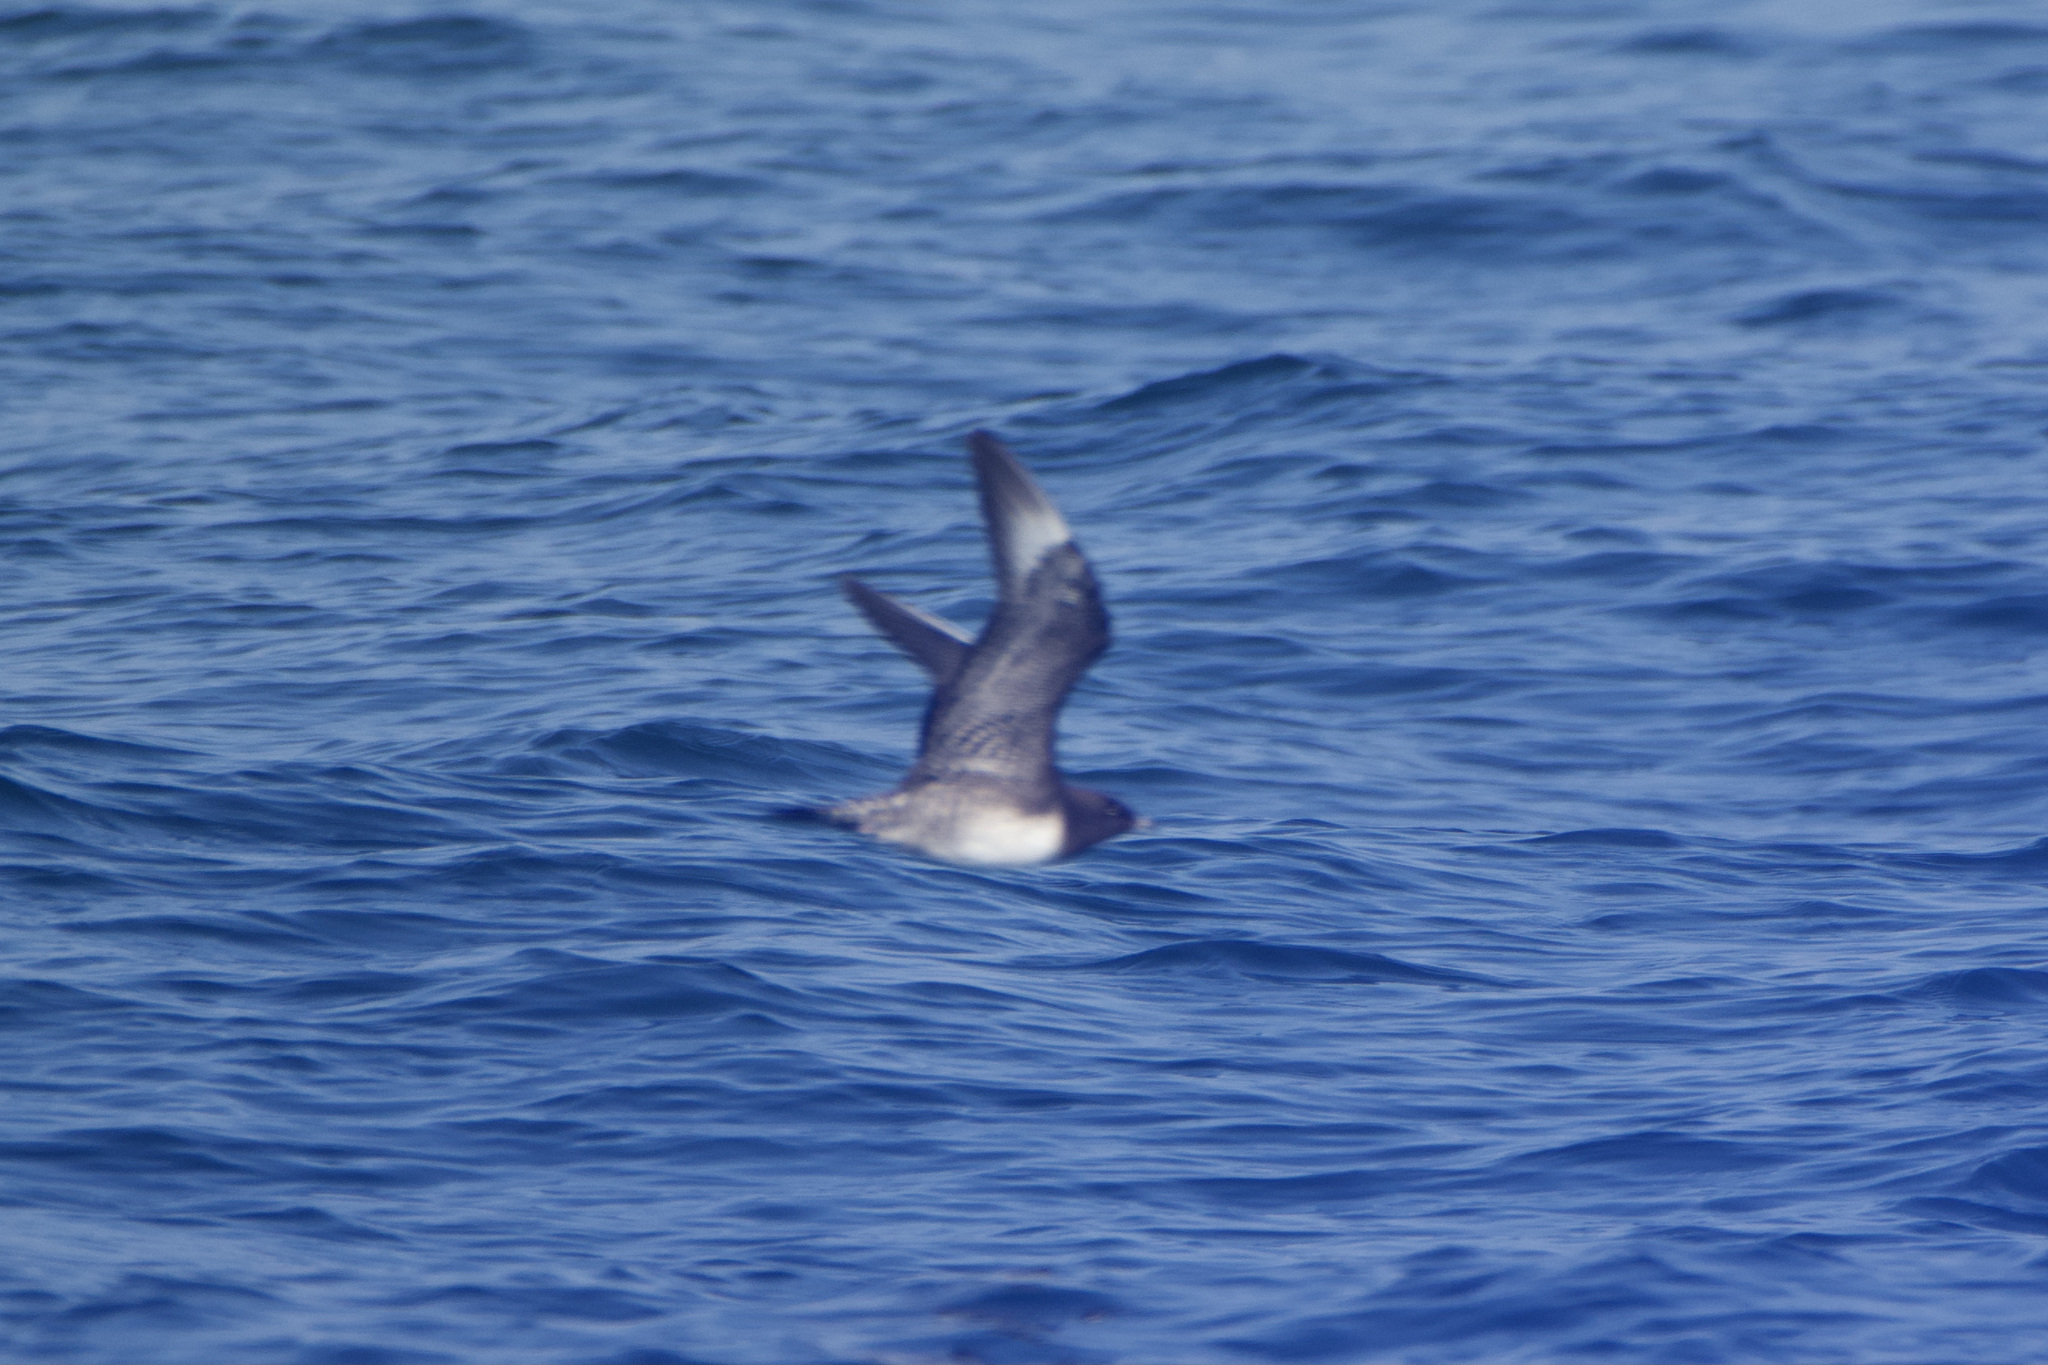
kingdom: Animalia
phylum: Chordata
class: Aves
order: Charadriiformes
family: Stercorariidae
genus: Stercorarius
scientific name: Stercorarius parasiticus
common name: Parasitic jaeger
